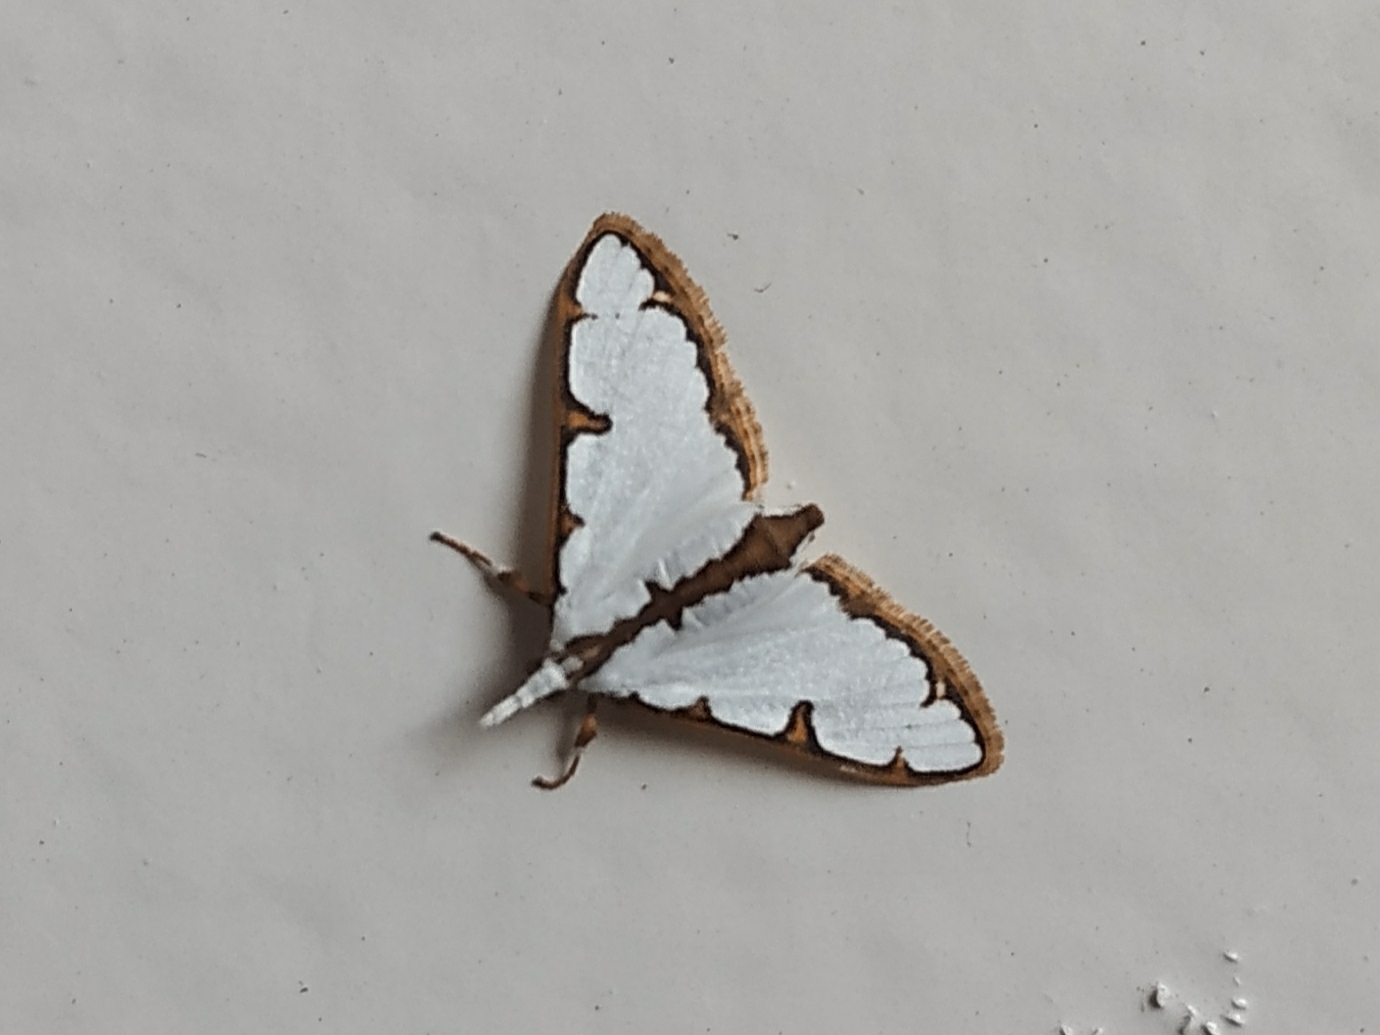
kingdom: Animalia
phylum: Arthropoda
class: Insecta
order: Lepidoptera
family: Crambidae
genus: Cirrhochrista
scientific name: Cirrhochrista brizoalis
